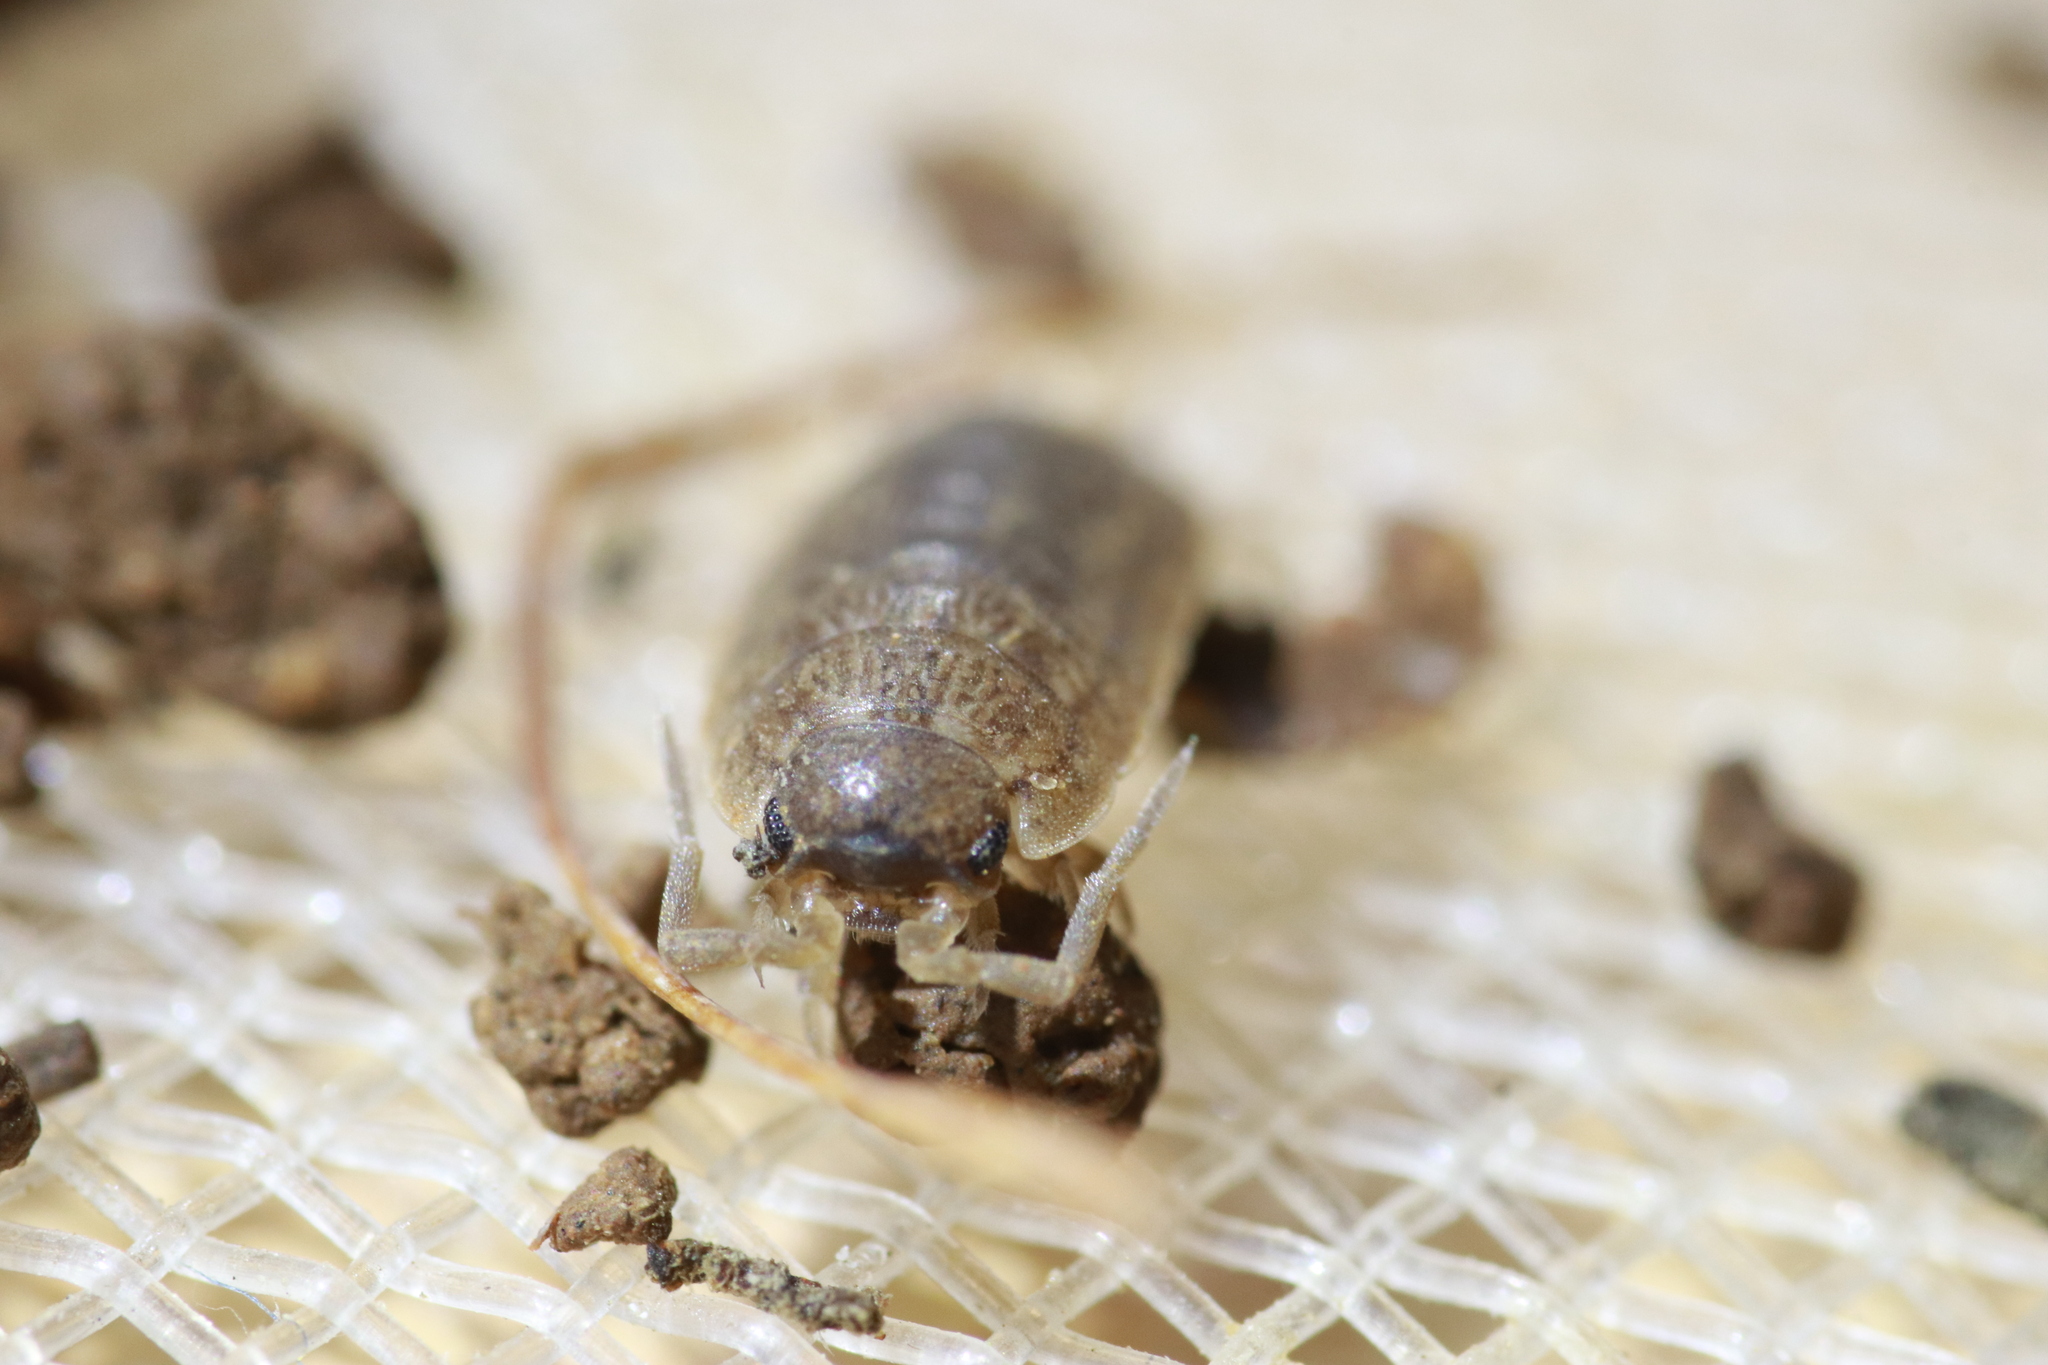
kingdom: Animalia
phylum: Arthropoda
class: Malacostraca
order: Isopoda
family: Porcellionidae
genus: Porcellio
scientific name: Porcellio provincialis
